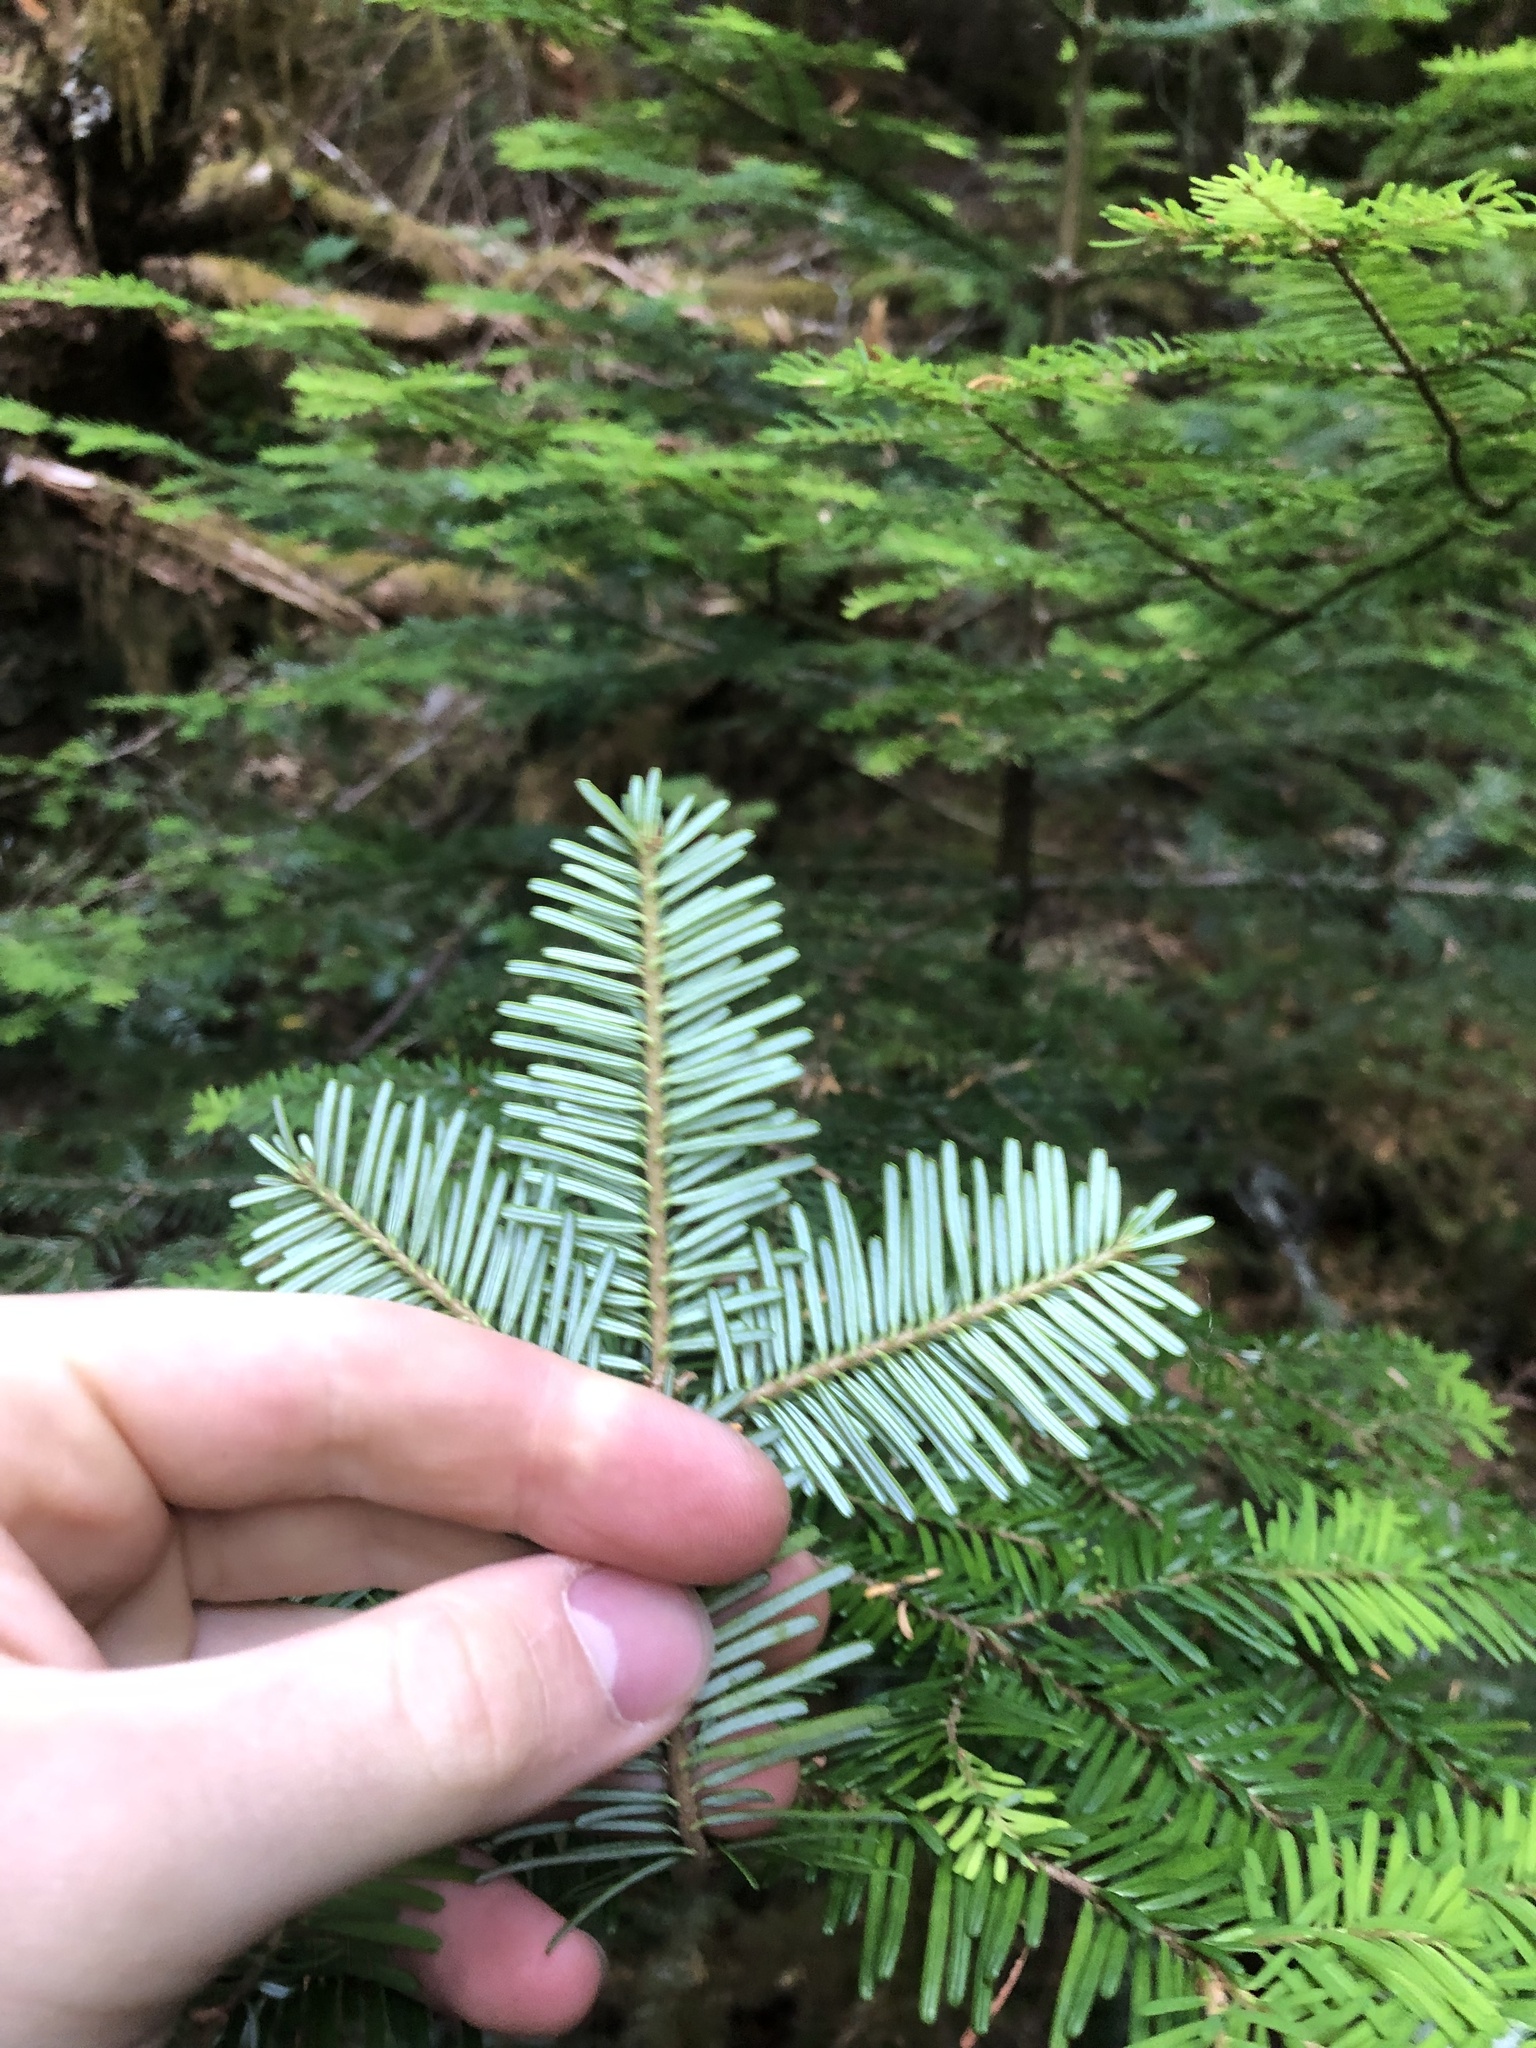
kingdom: Plantae
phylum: Tracheophyta
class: Pinopsida
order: Pinales
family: Pinaceae
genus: Abies
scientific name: Abies amabilis
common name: Pacific silver fir
